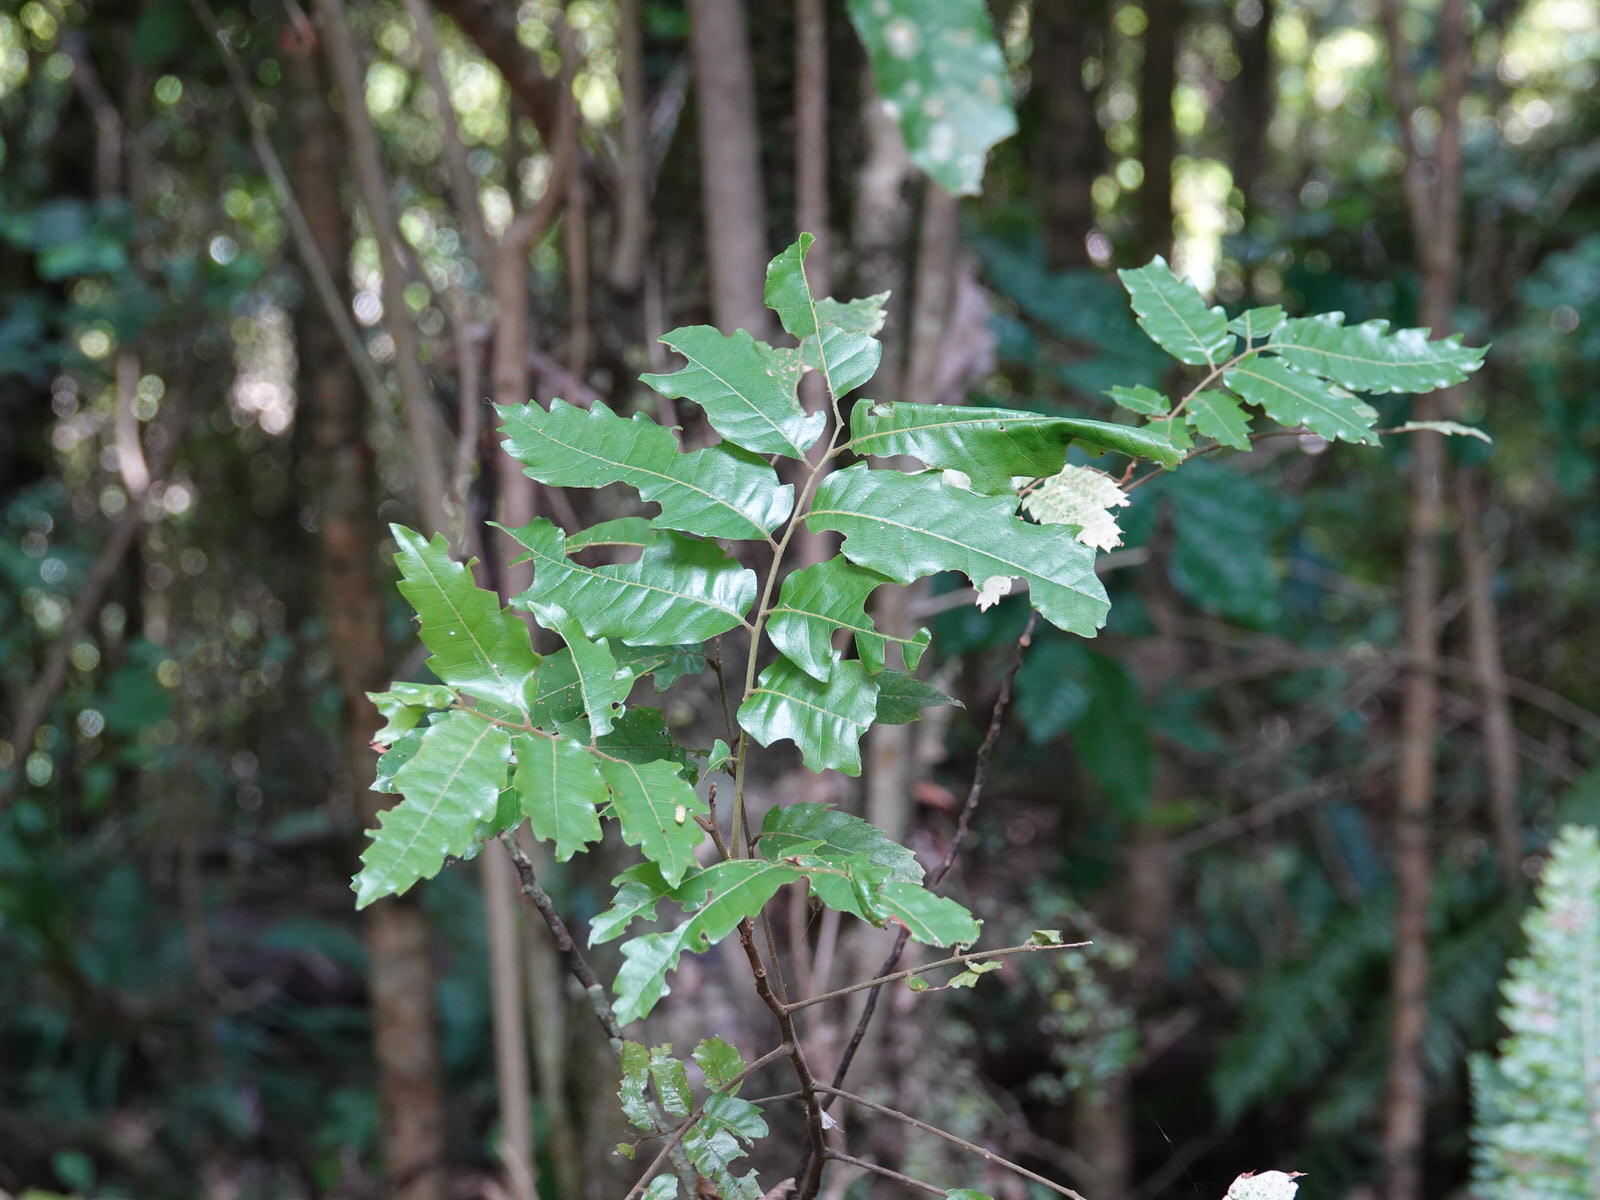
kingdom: Plantae
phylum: Tracheophyta
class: Magnoliopsida
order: Sapindales
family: Sapindaceae
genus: Alectryon
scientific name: Alectryon excelsus
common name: Three kings titoki
